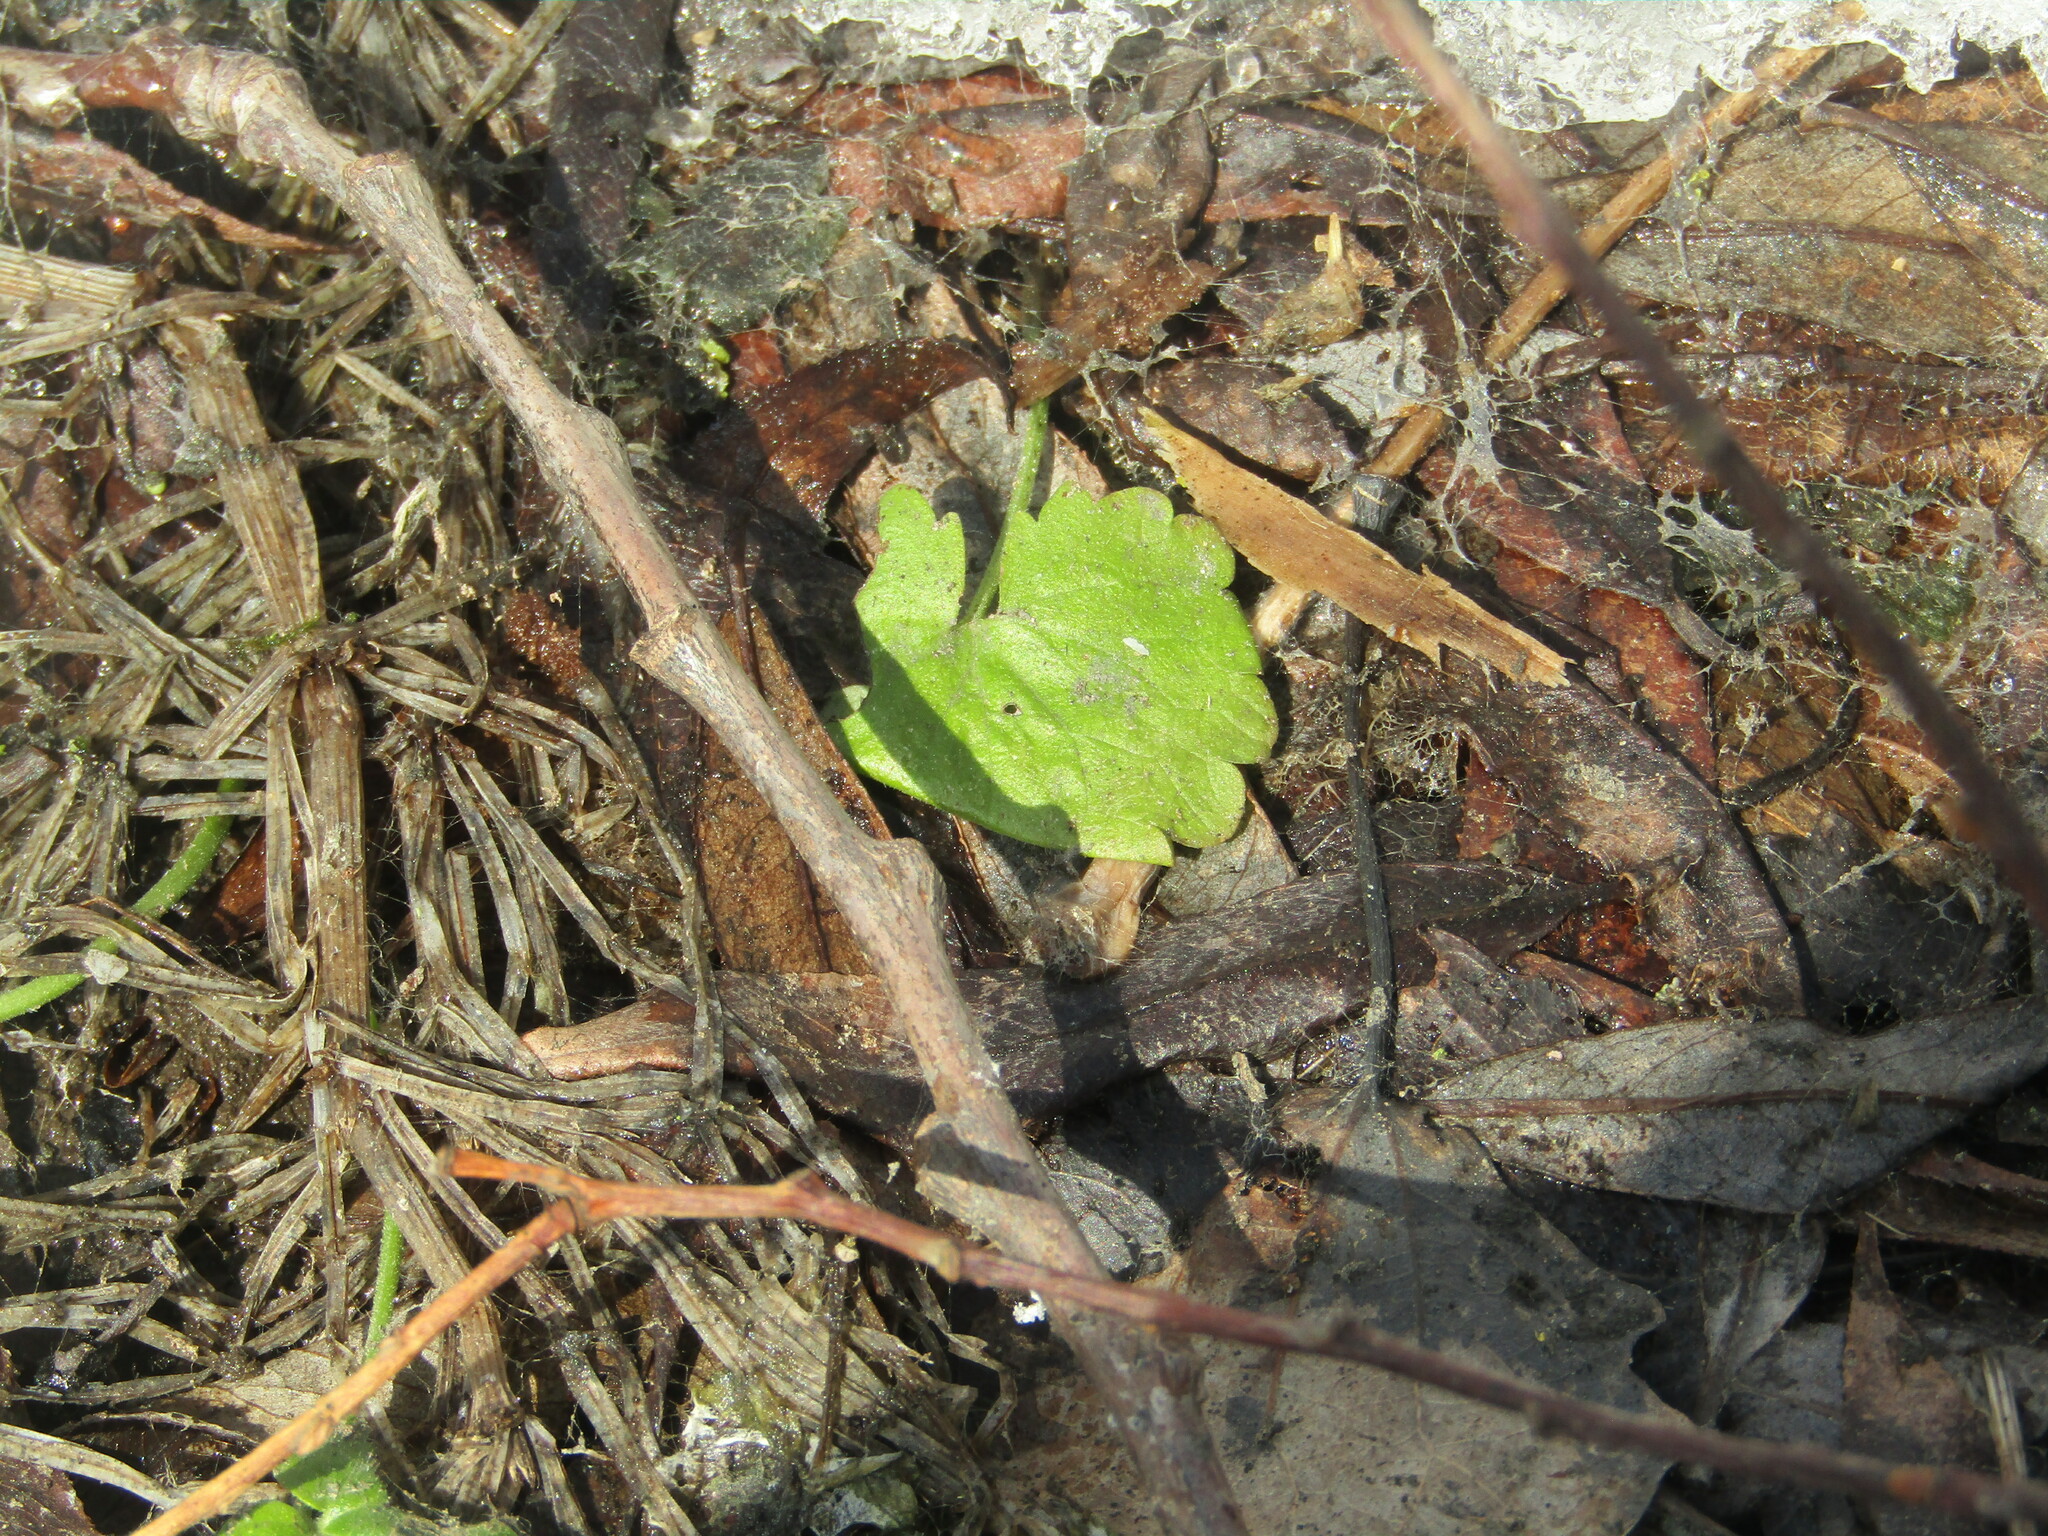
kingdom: Plantae
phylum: Tracheophyta
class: Magnoliopsida
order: Lamiales
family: Lamiaceae
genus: Glechoma
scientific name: Glechoma hederacea
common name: Ground ivy
